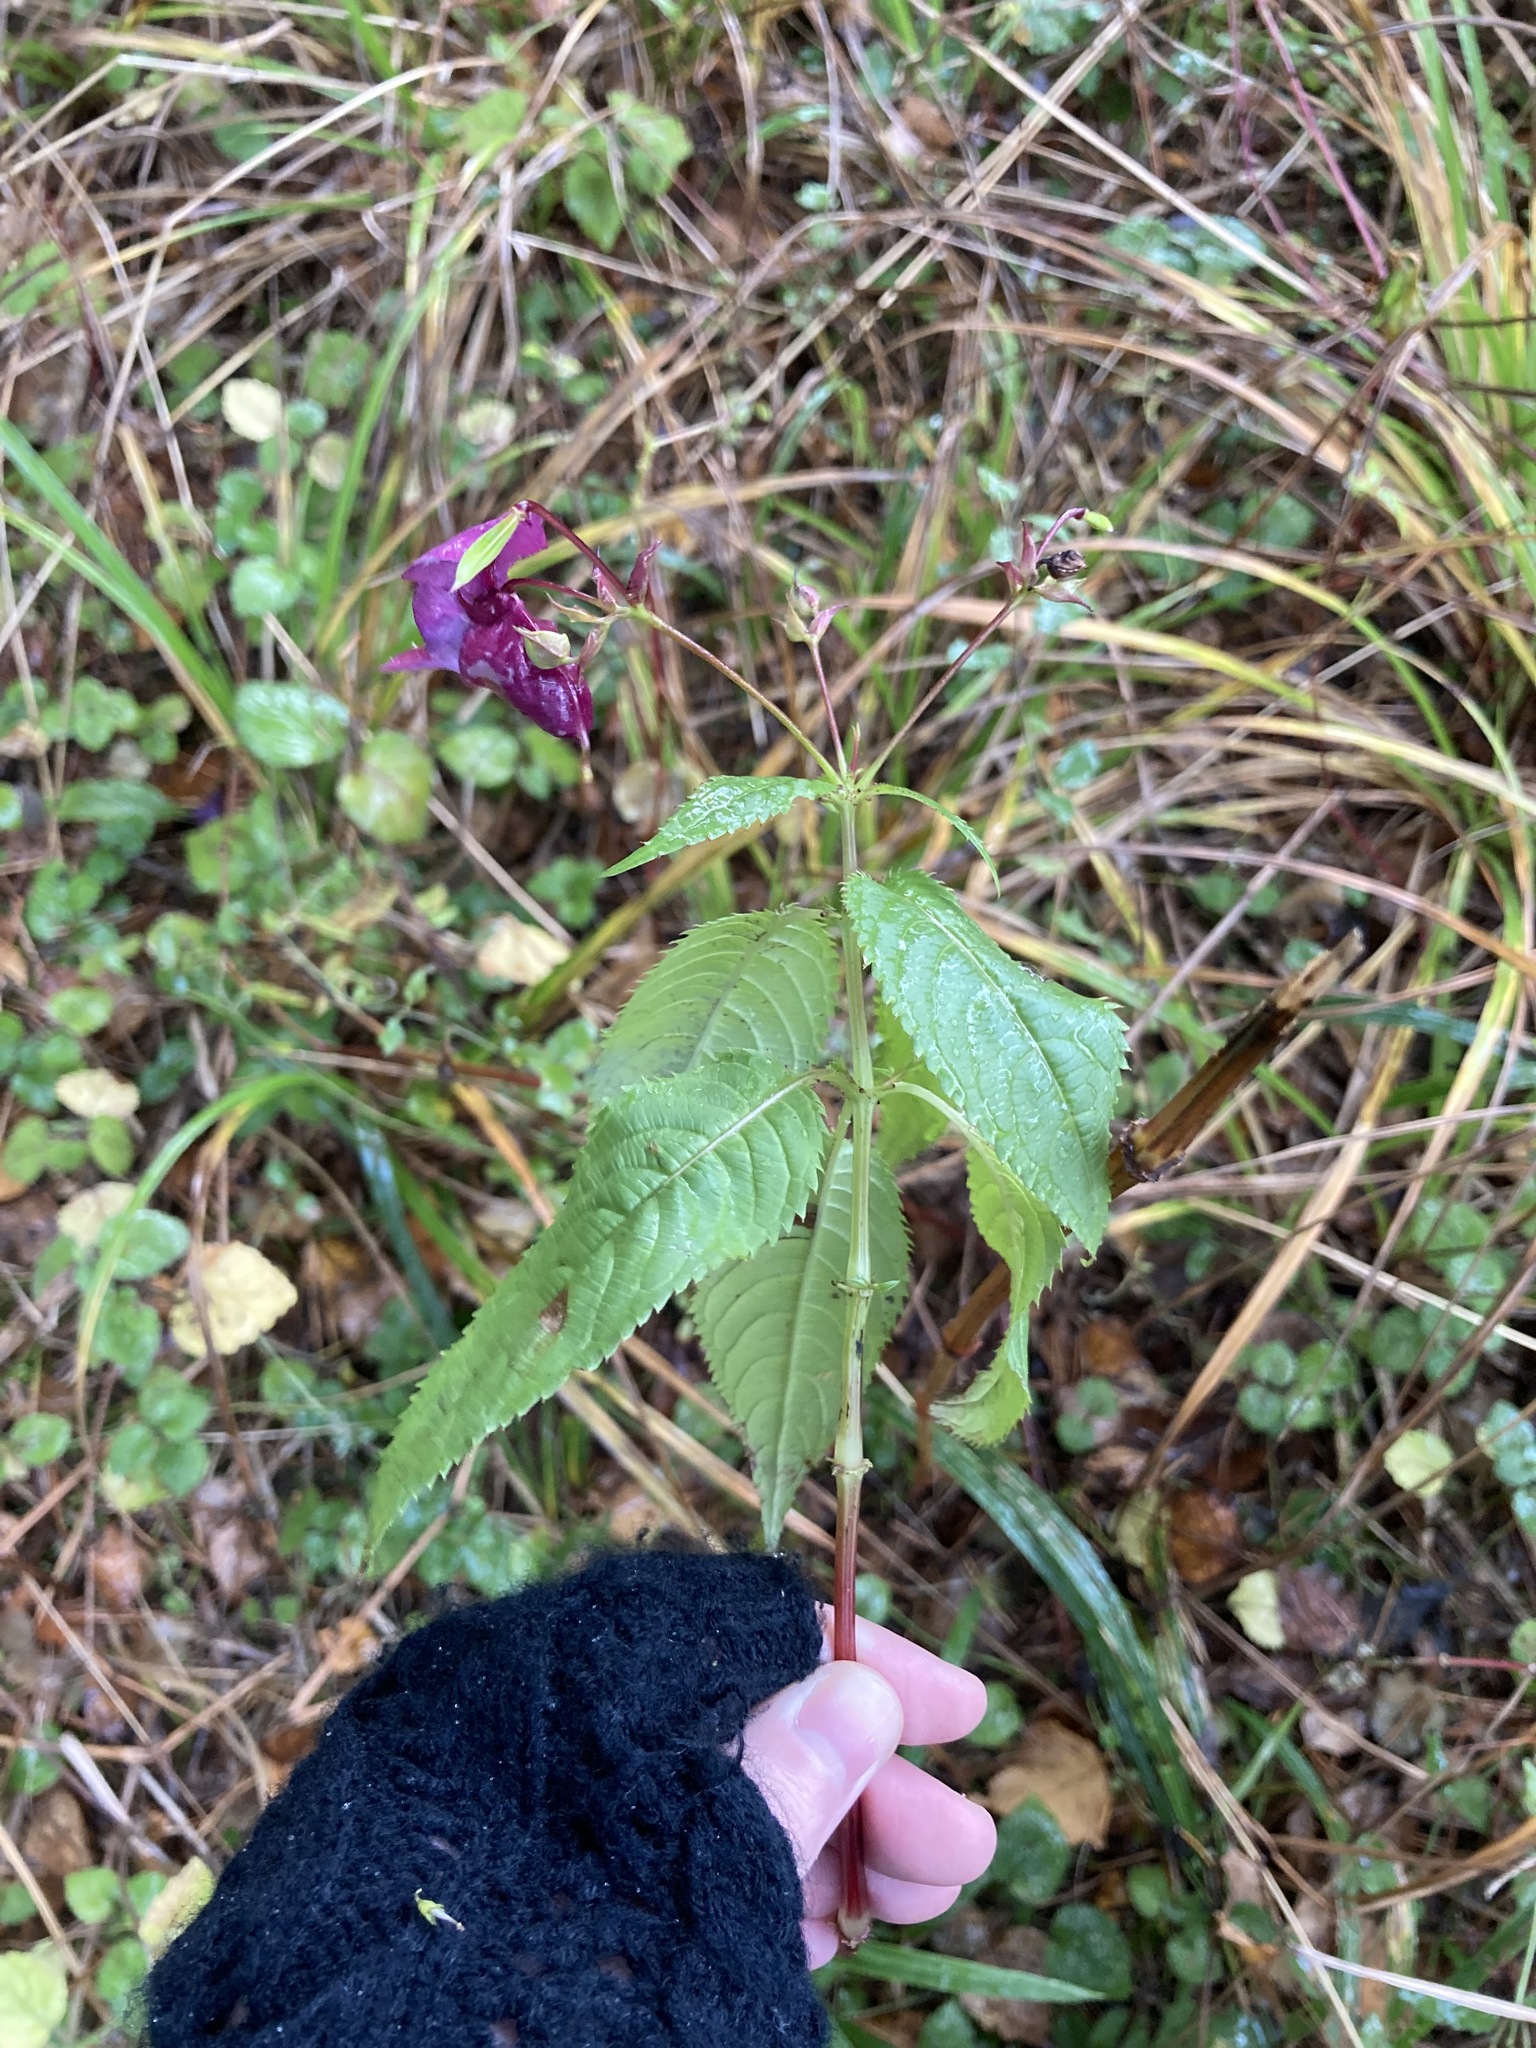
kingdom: Plantae
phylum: Tracheophyta
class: Magnoliopsida
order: Ericales
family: Balsaminaceae
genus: Impatiens
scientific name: Impatiens glandulifera
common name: Himalayan balsam
